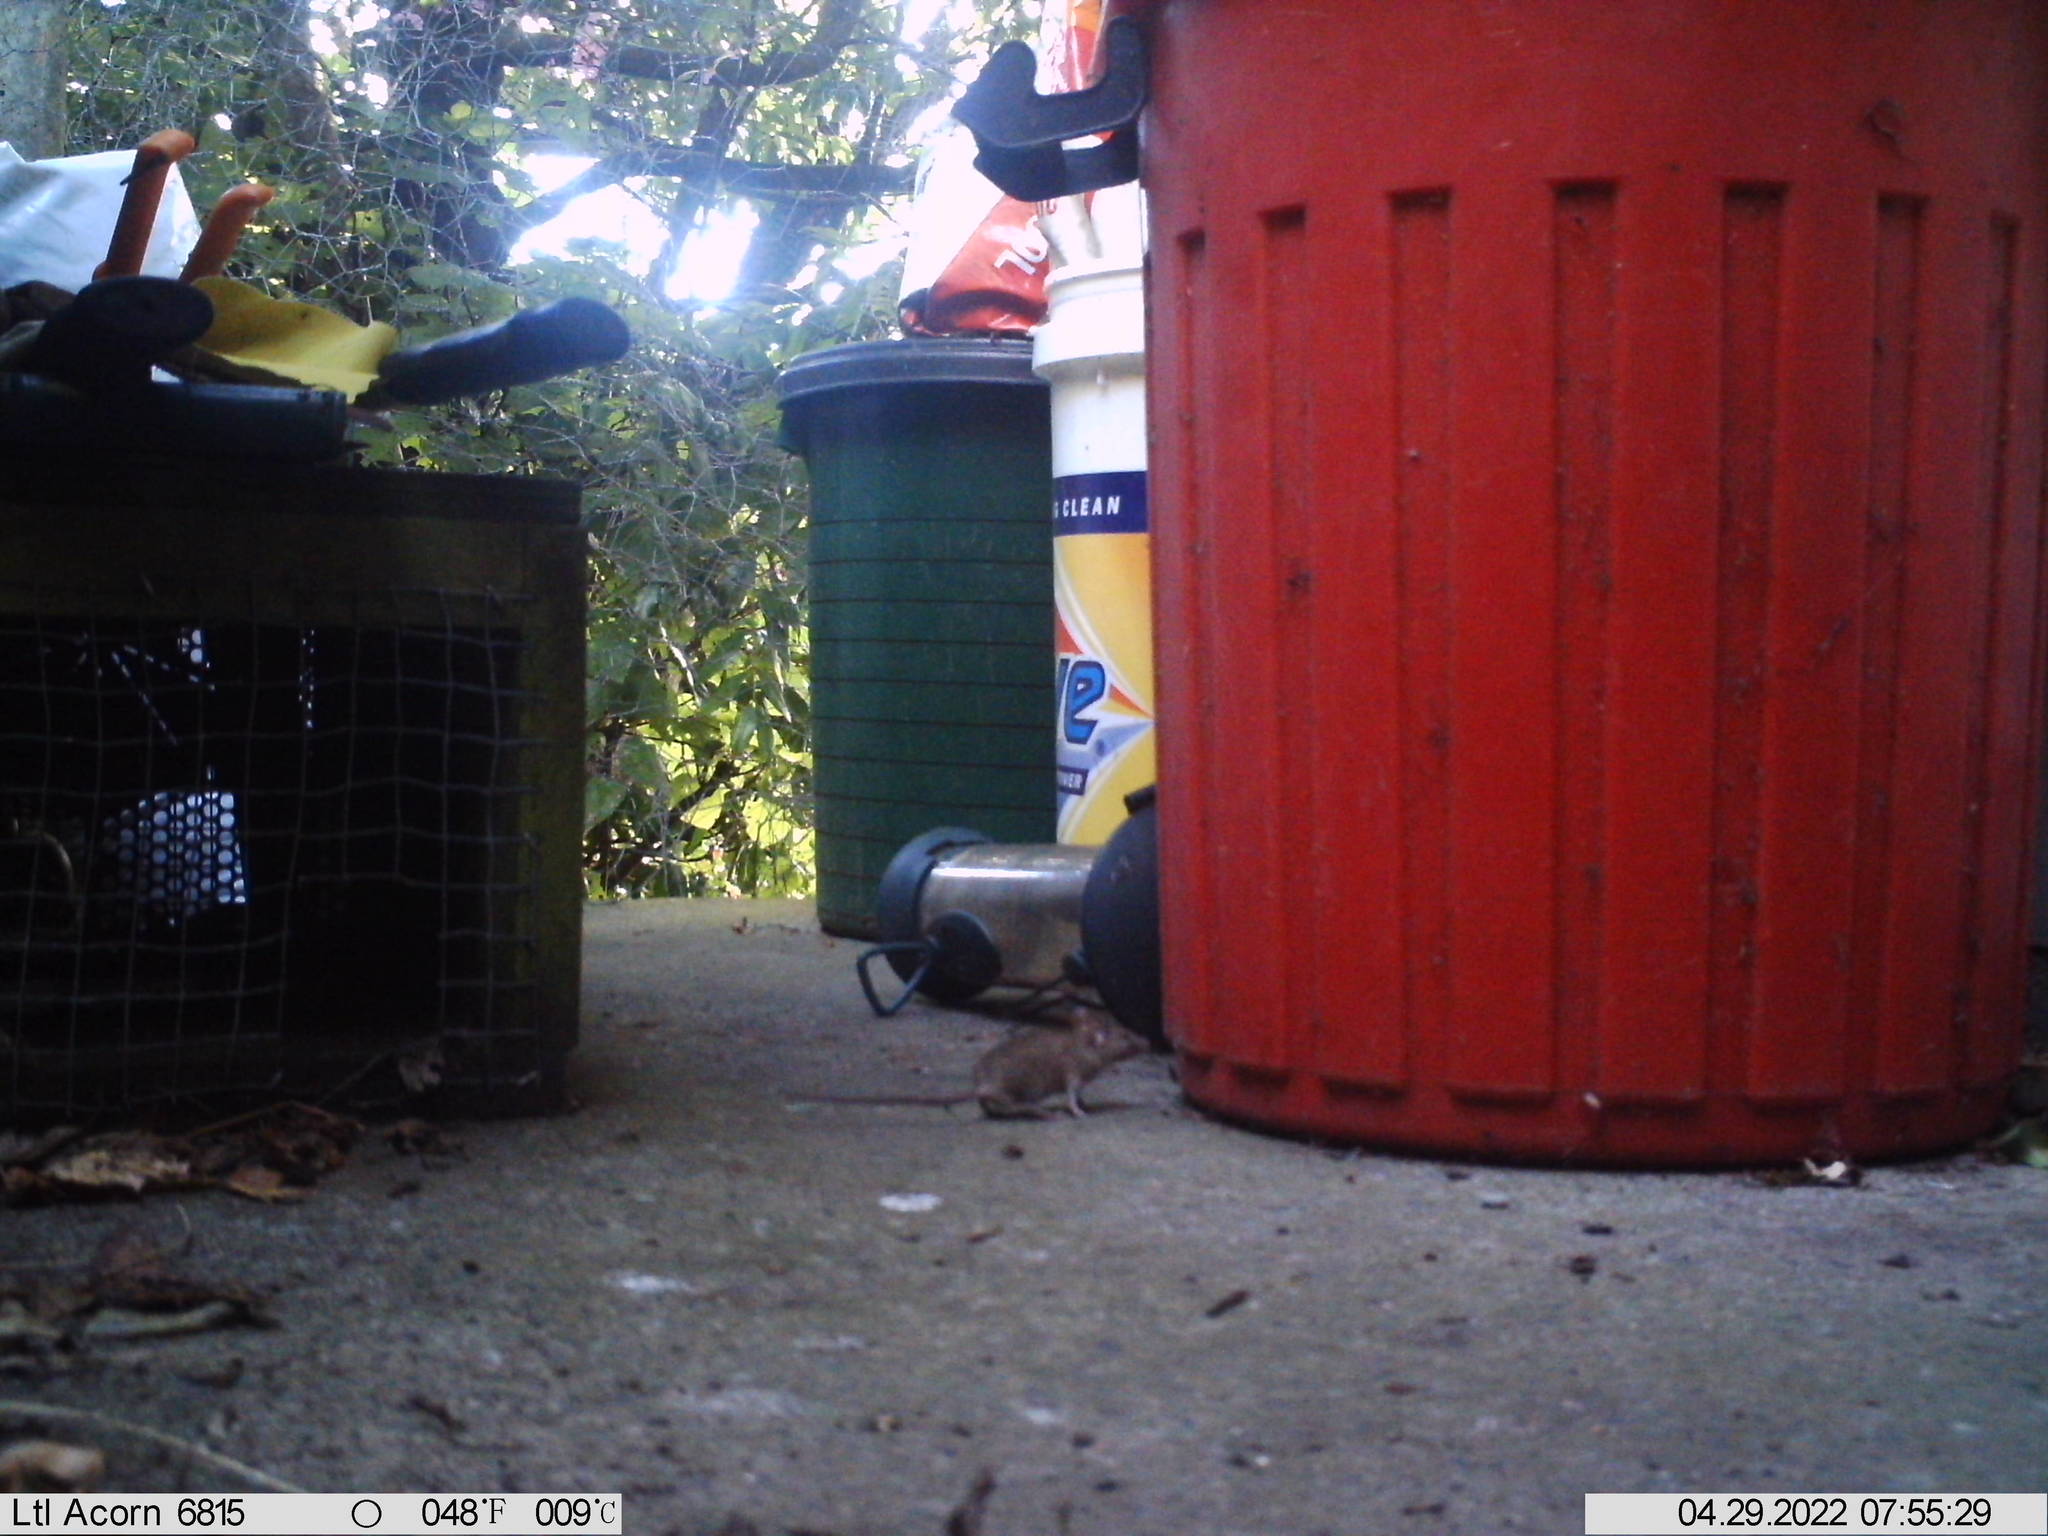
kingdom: Animalia
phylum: Chordata
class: Mammalia
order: Rodentia
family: Muridae
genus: Mus
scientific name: Mus musculus
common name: House mouse
